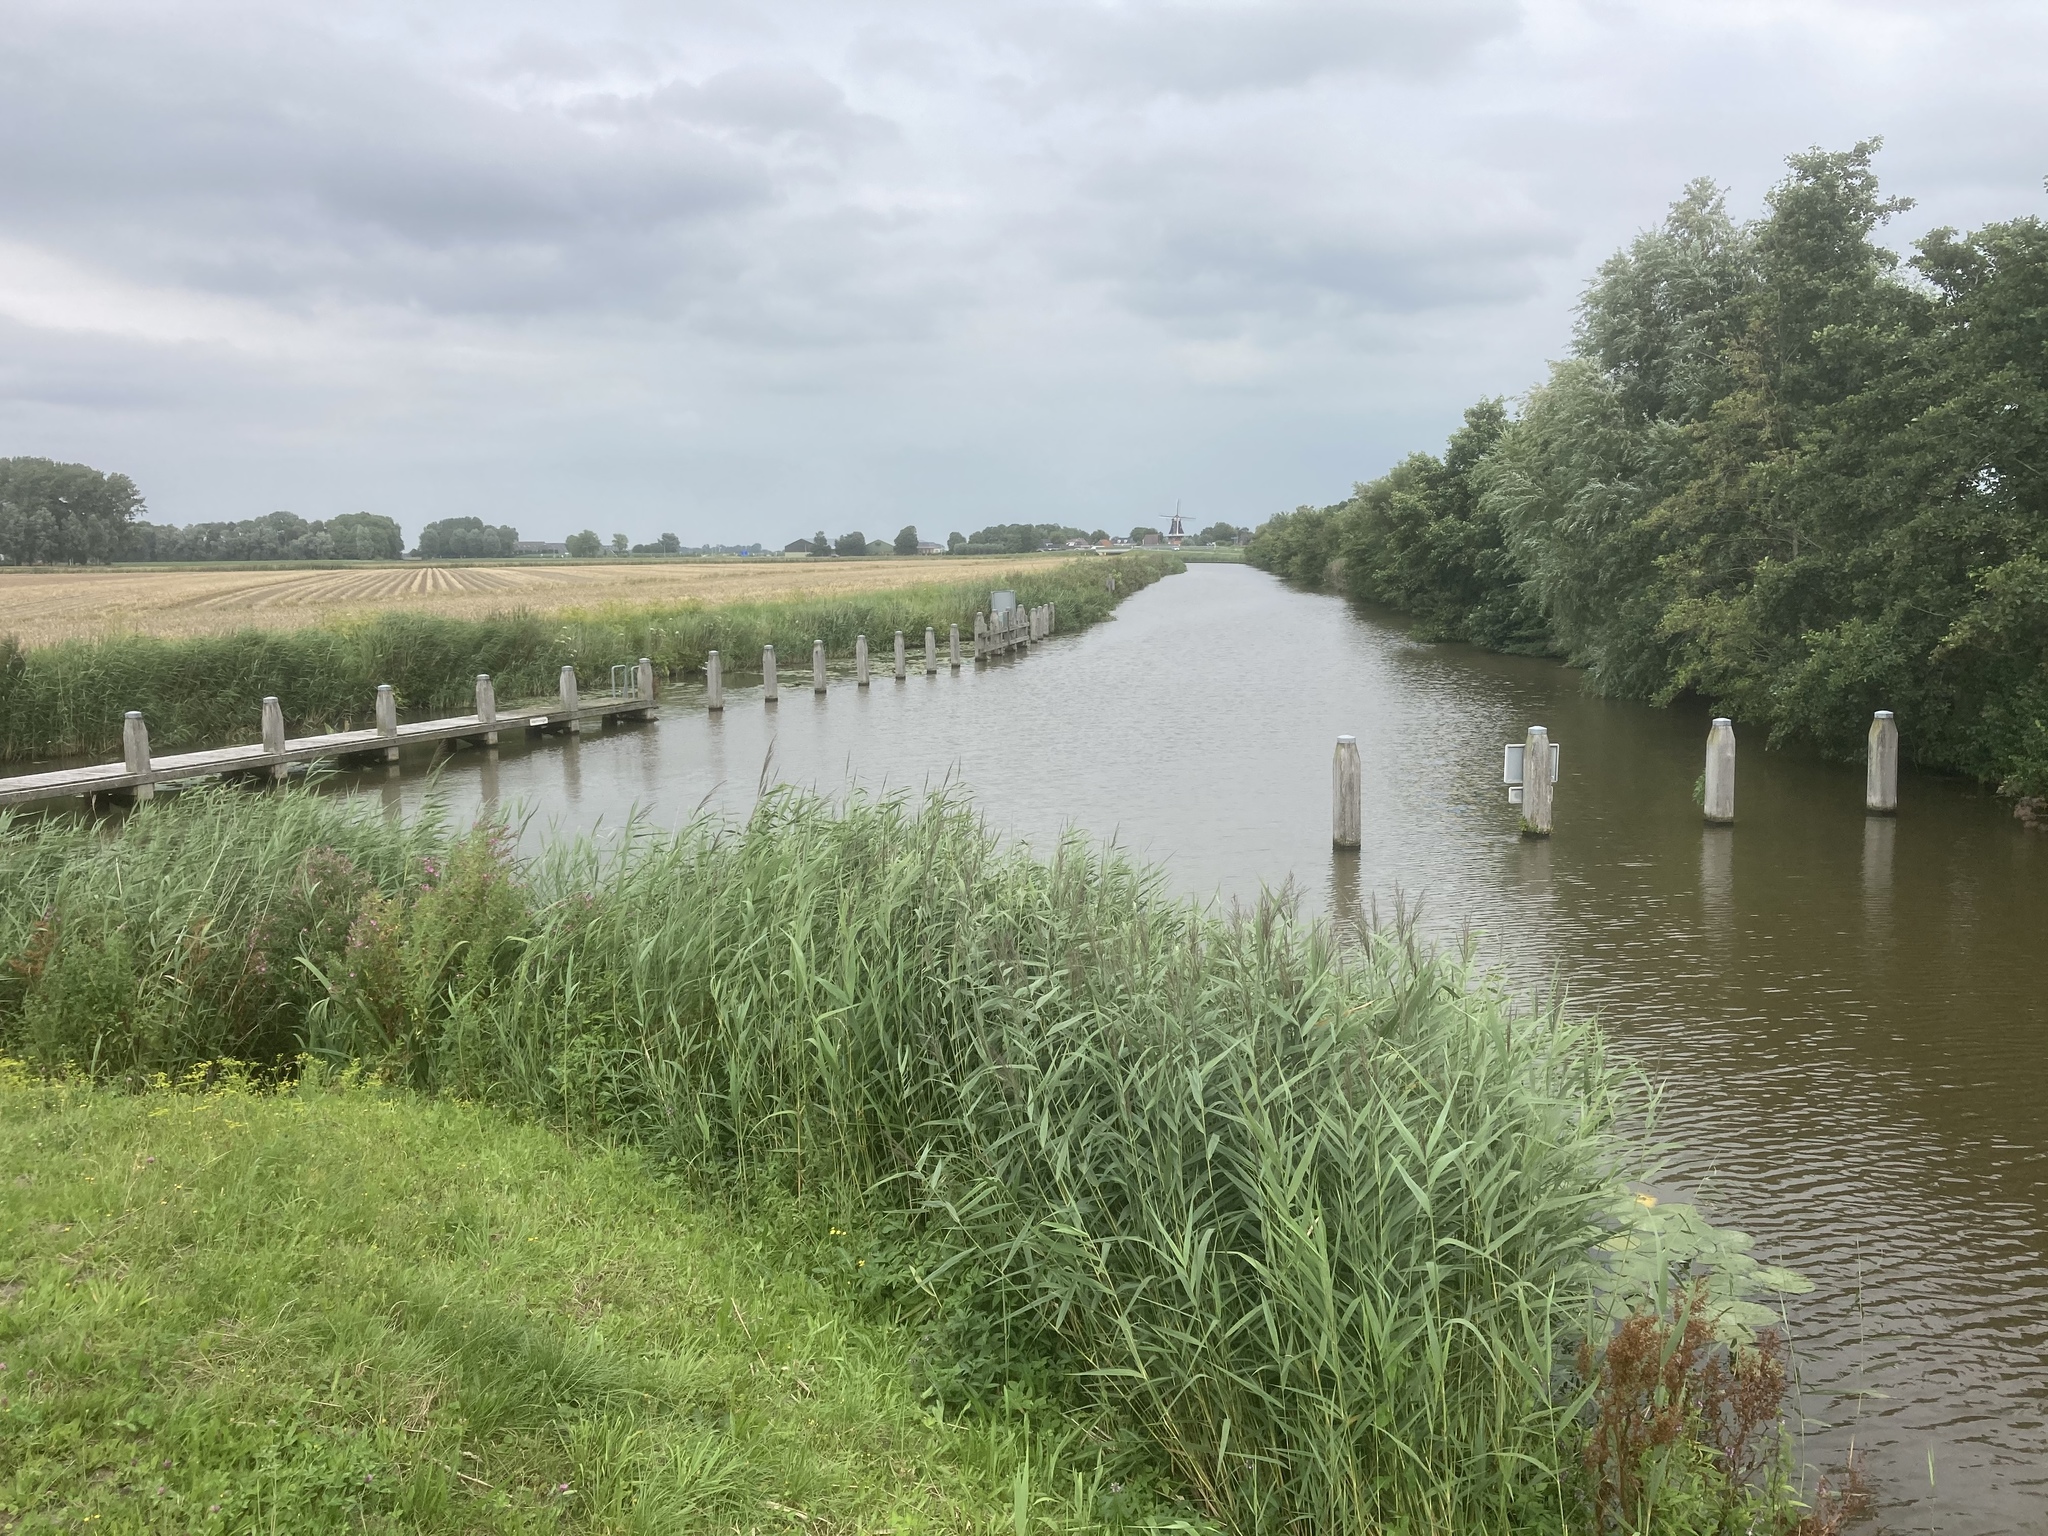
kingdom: Plantae
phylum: Tracheophyta
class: Liliopsida
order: Poales
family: Poaceae
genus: Phragmites
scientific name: Phragmites australis
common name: Common reed
